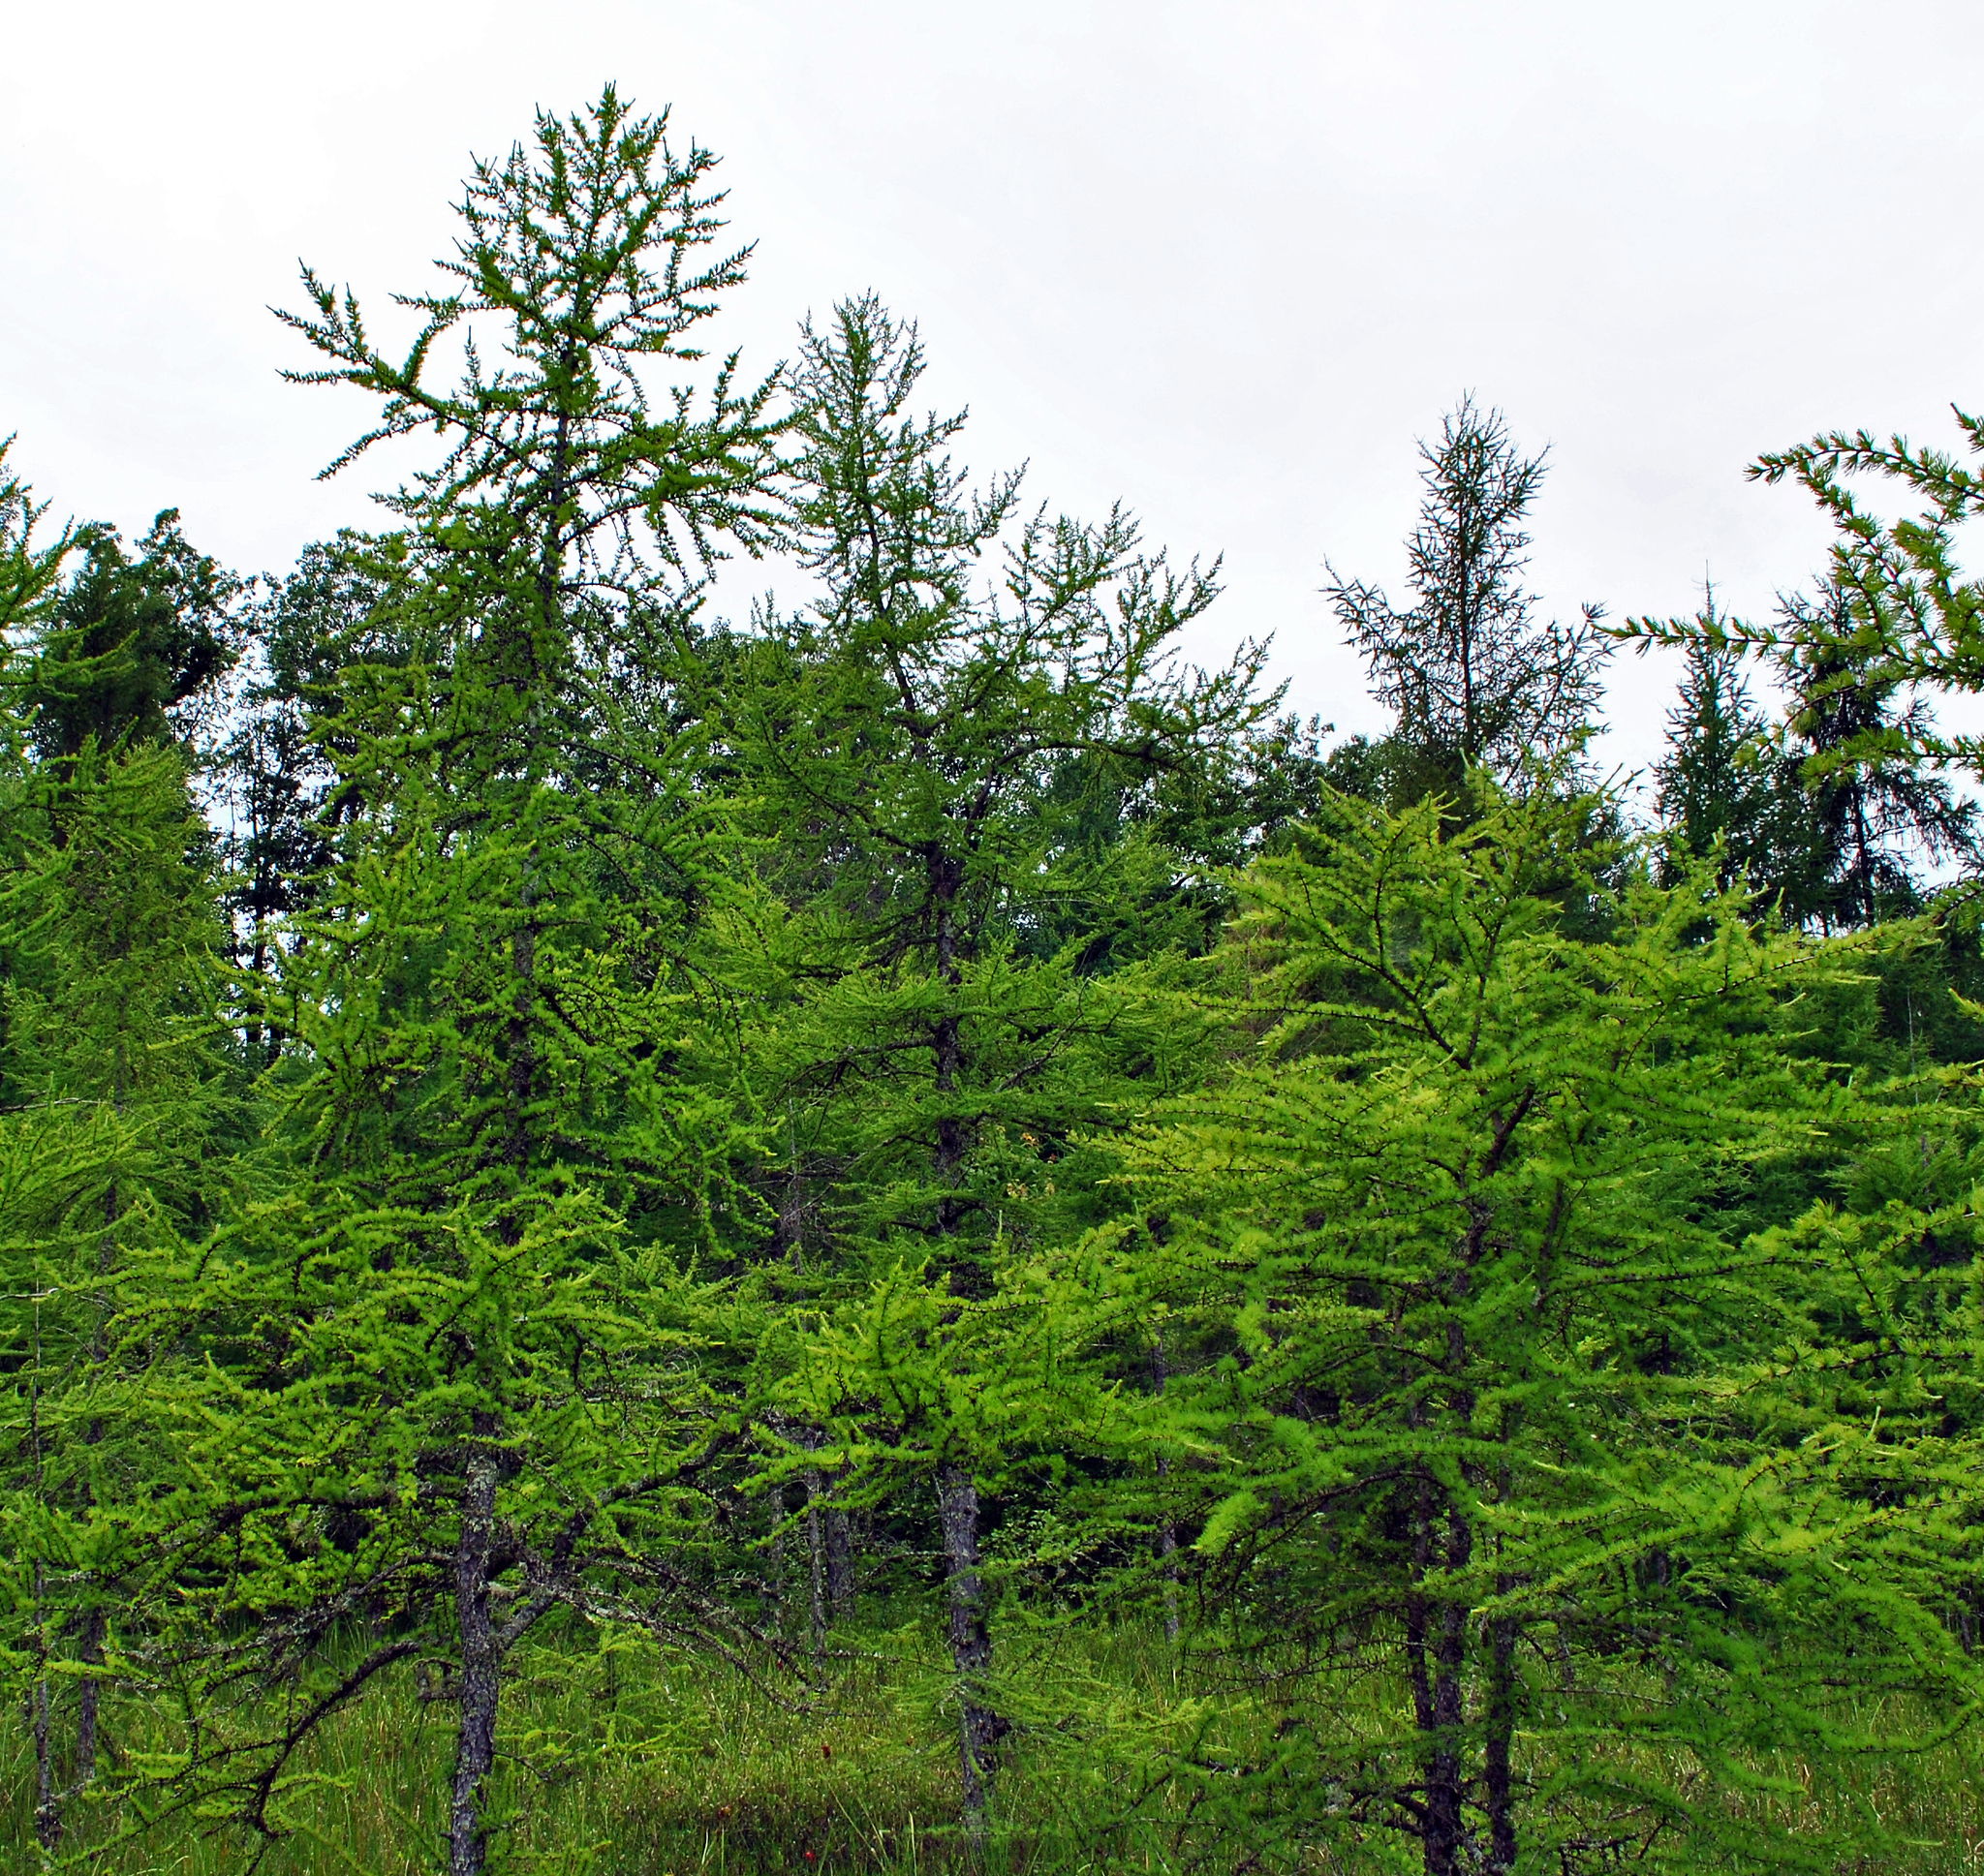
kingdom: Plantae
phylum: Tracheophyta
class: Pinopsida
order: Pinales
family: Pinaceae
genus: Larix
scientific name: Larix laricina
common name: American larch
